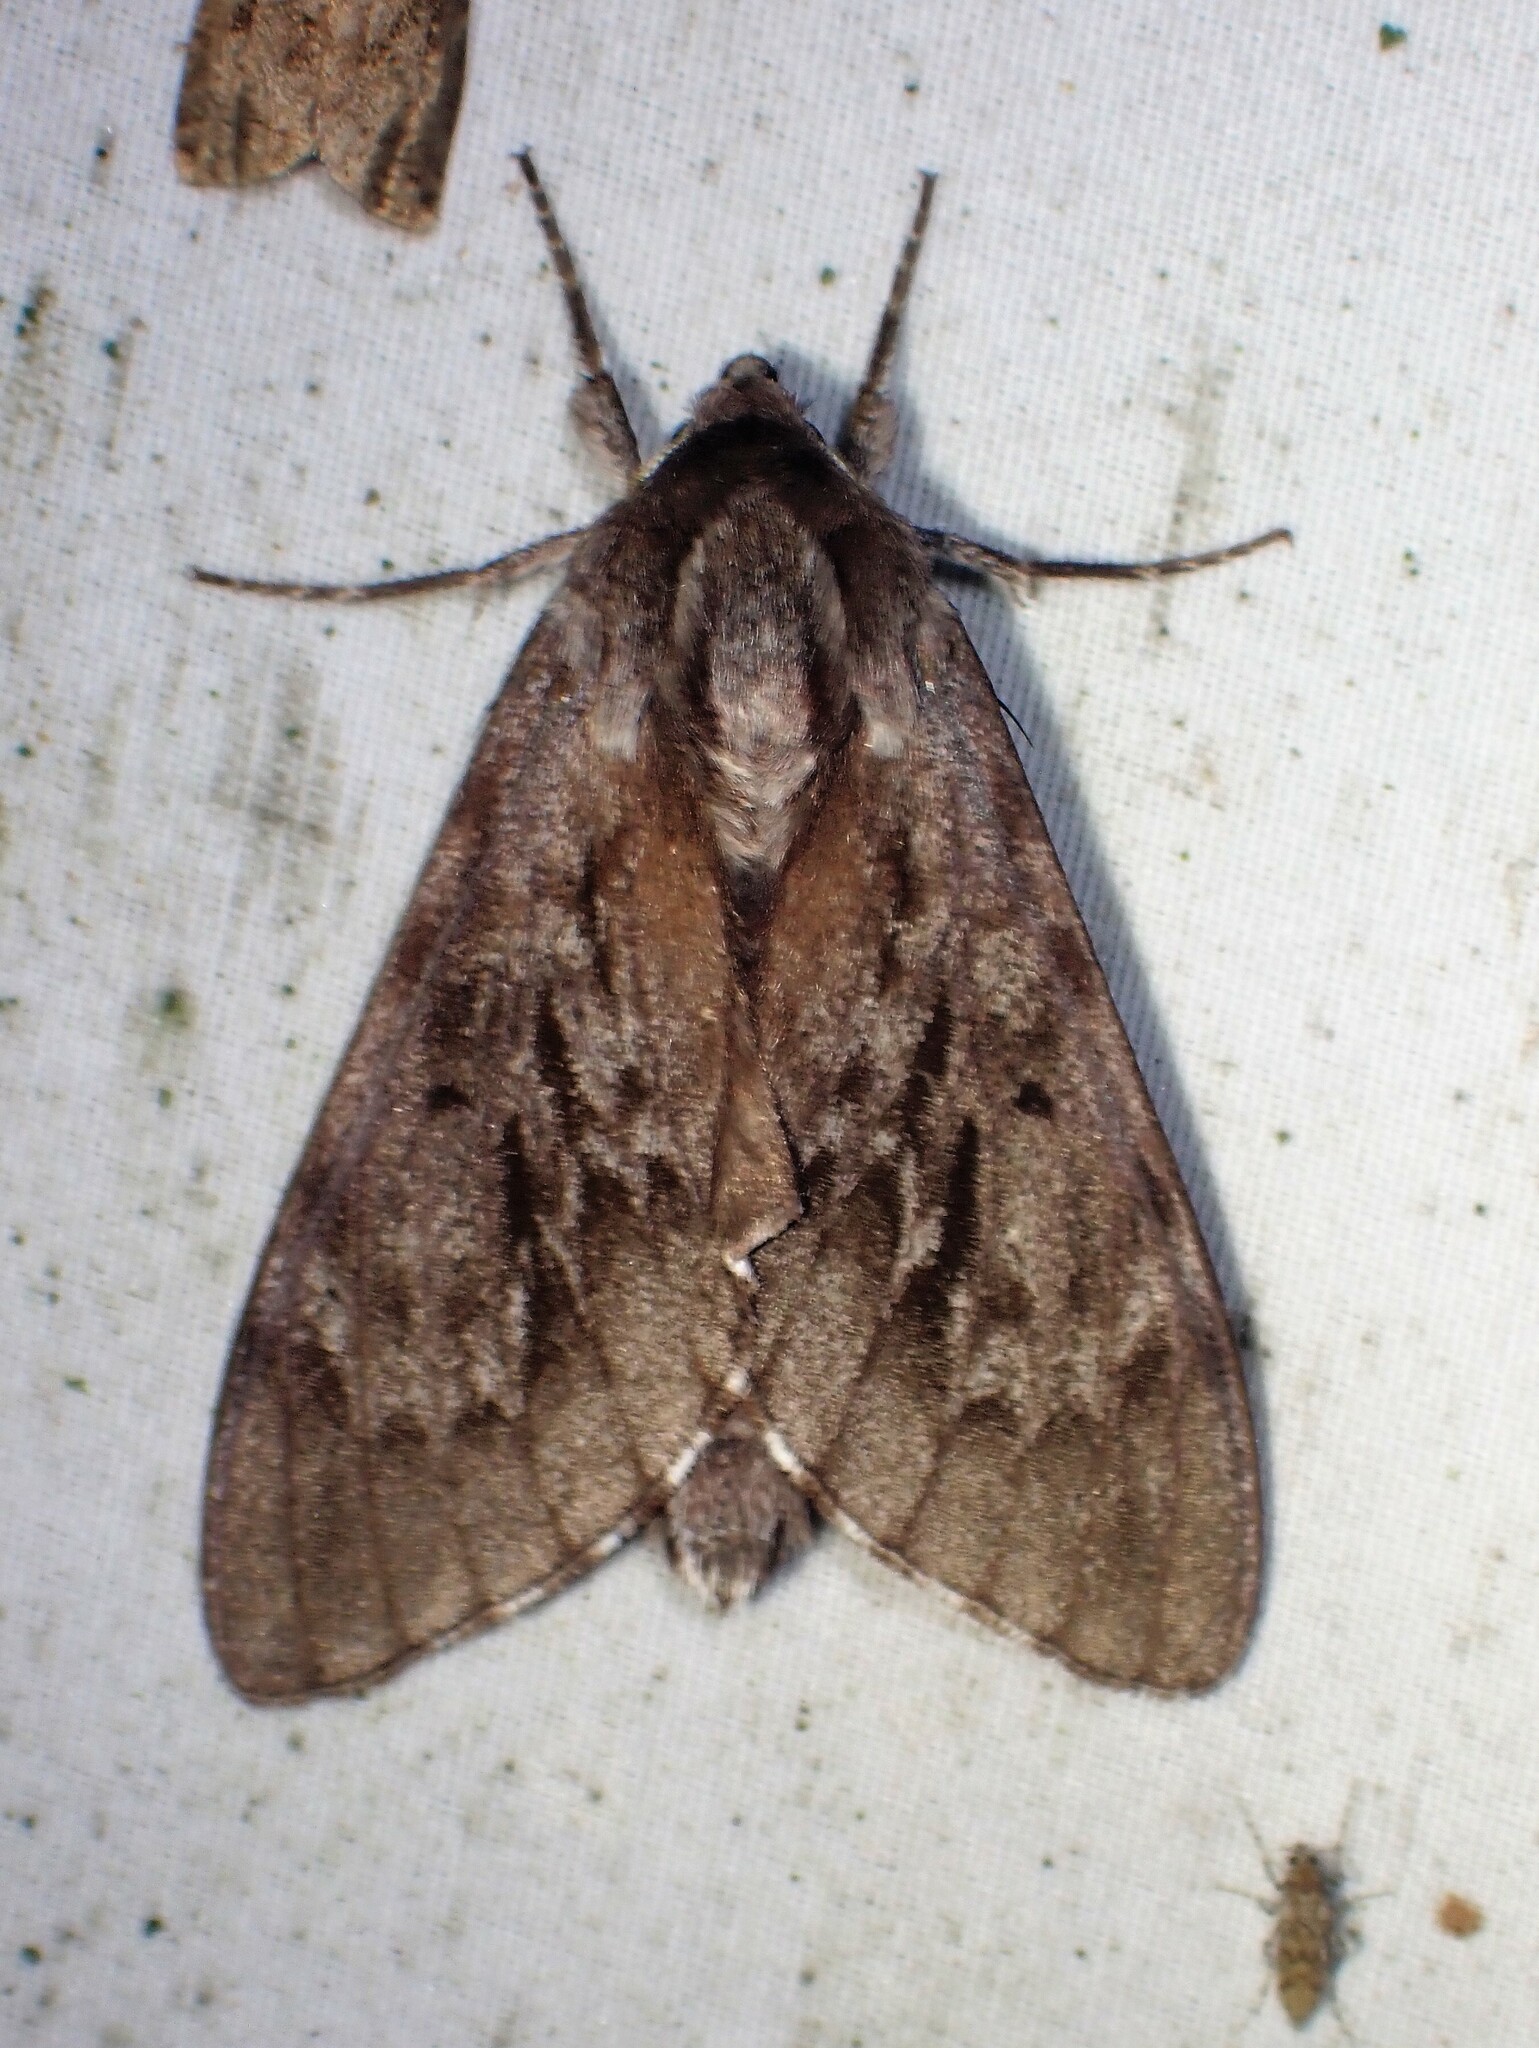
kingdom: Animalia
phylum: Arthropoda
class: Insecta
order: Lepidoptera
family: Sphingidae
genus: Lapara
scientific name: Lapara bombycoides
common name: Northern pine sphinx
